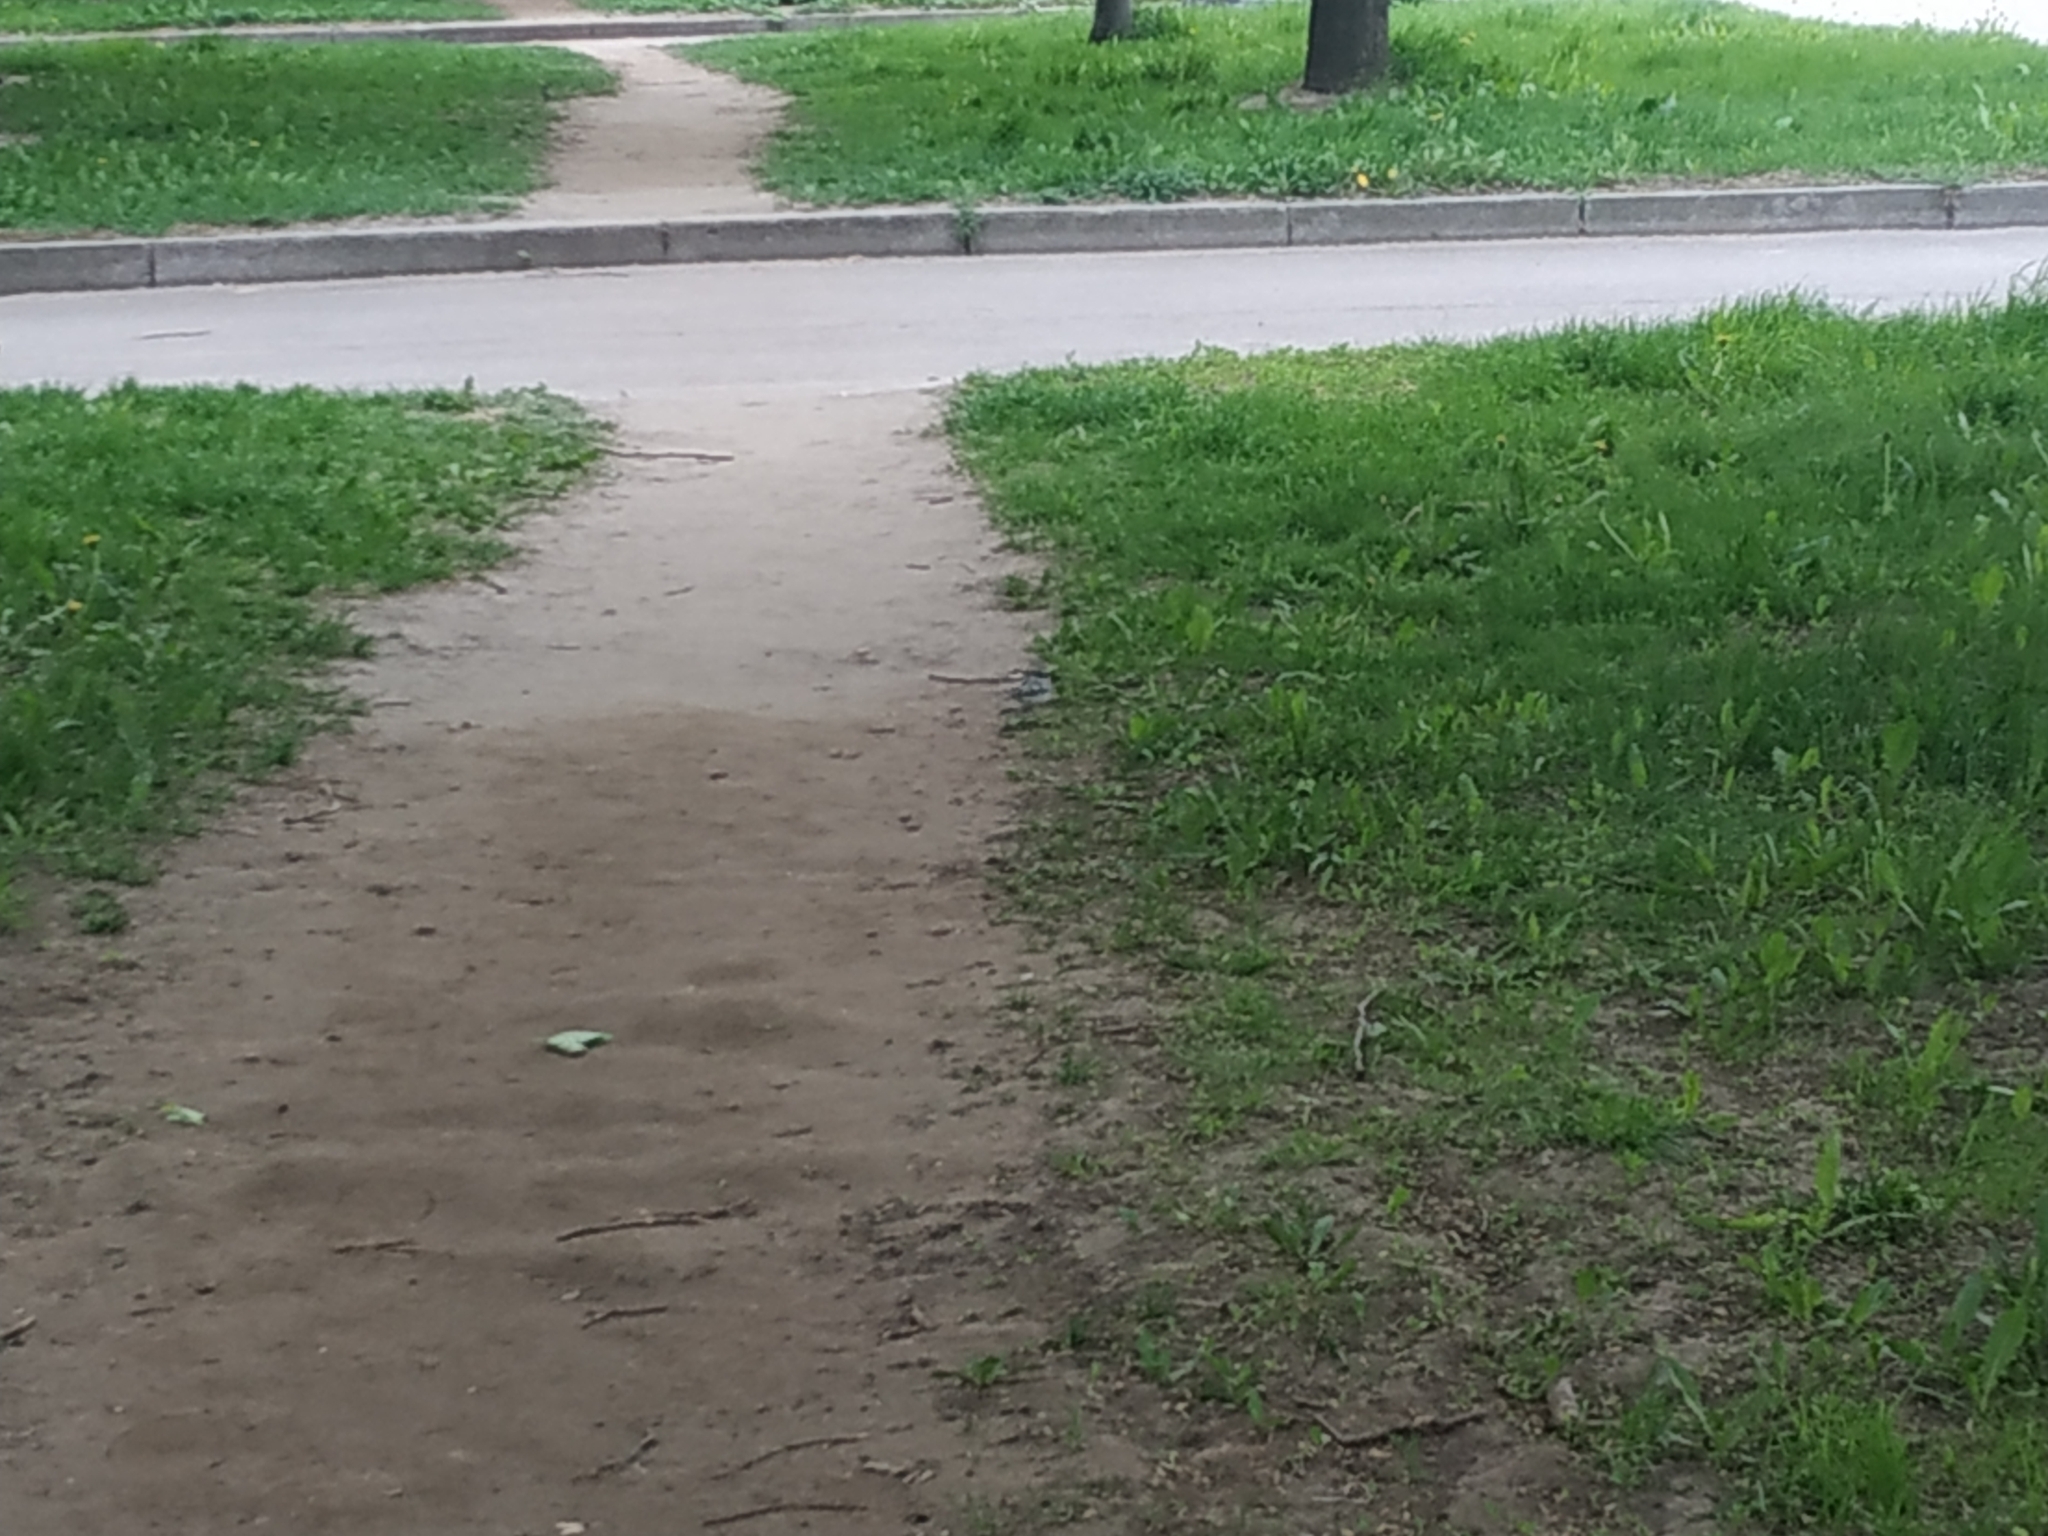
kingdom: Animalia
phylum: Chordata
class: Aves
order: Passeriformes
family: Motacillidae
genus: Motacilla
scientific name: Motacilla alba
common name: White wagtail
